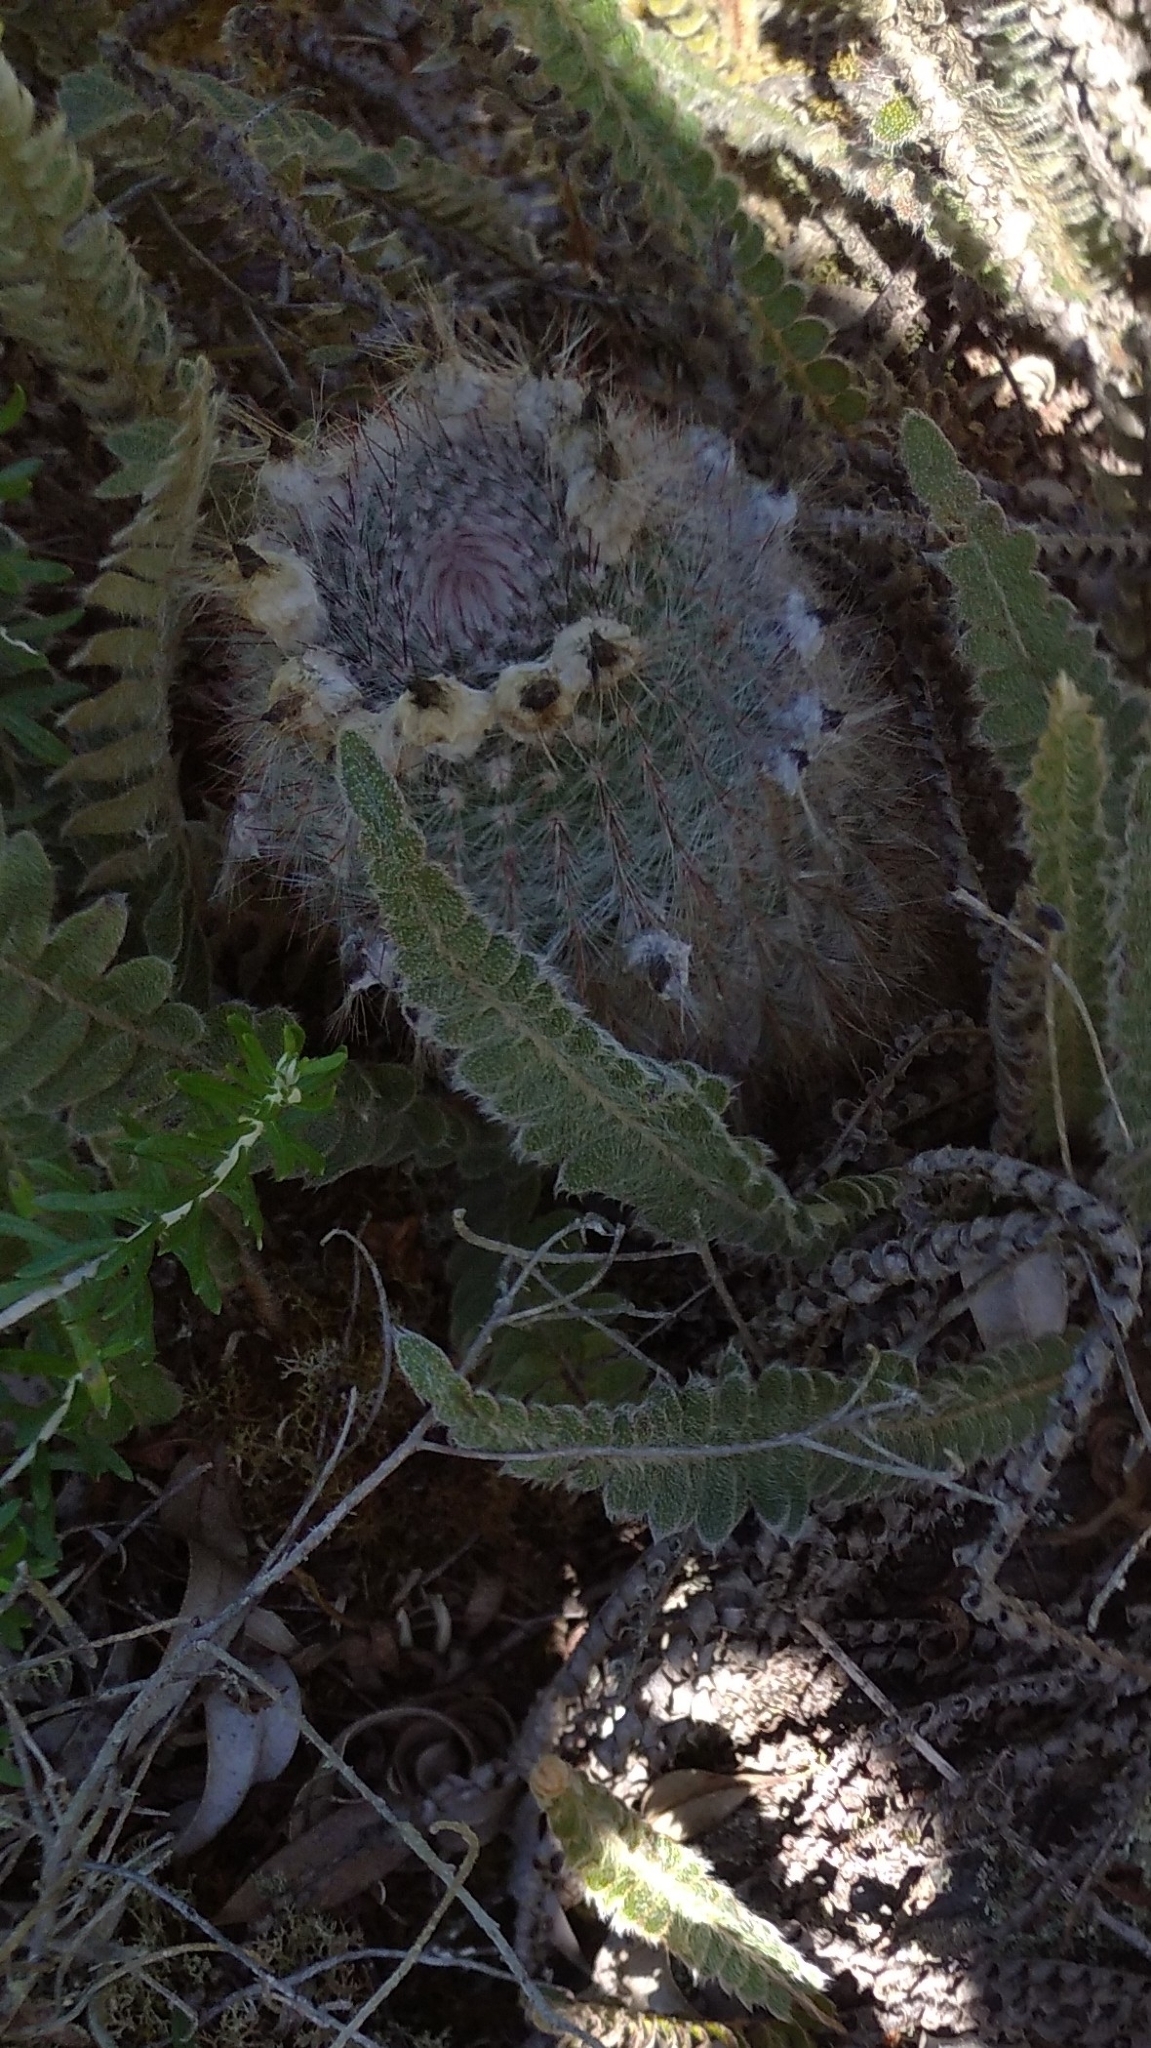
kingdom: Plantae
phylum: Tracheophyta
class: Magnoliopsida
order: Caryophyllales
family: Cactaceae
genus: Parodia
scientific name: Parodia scopa
